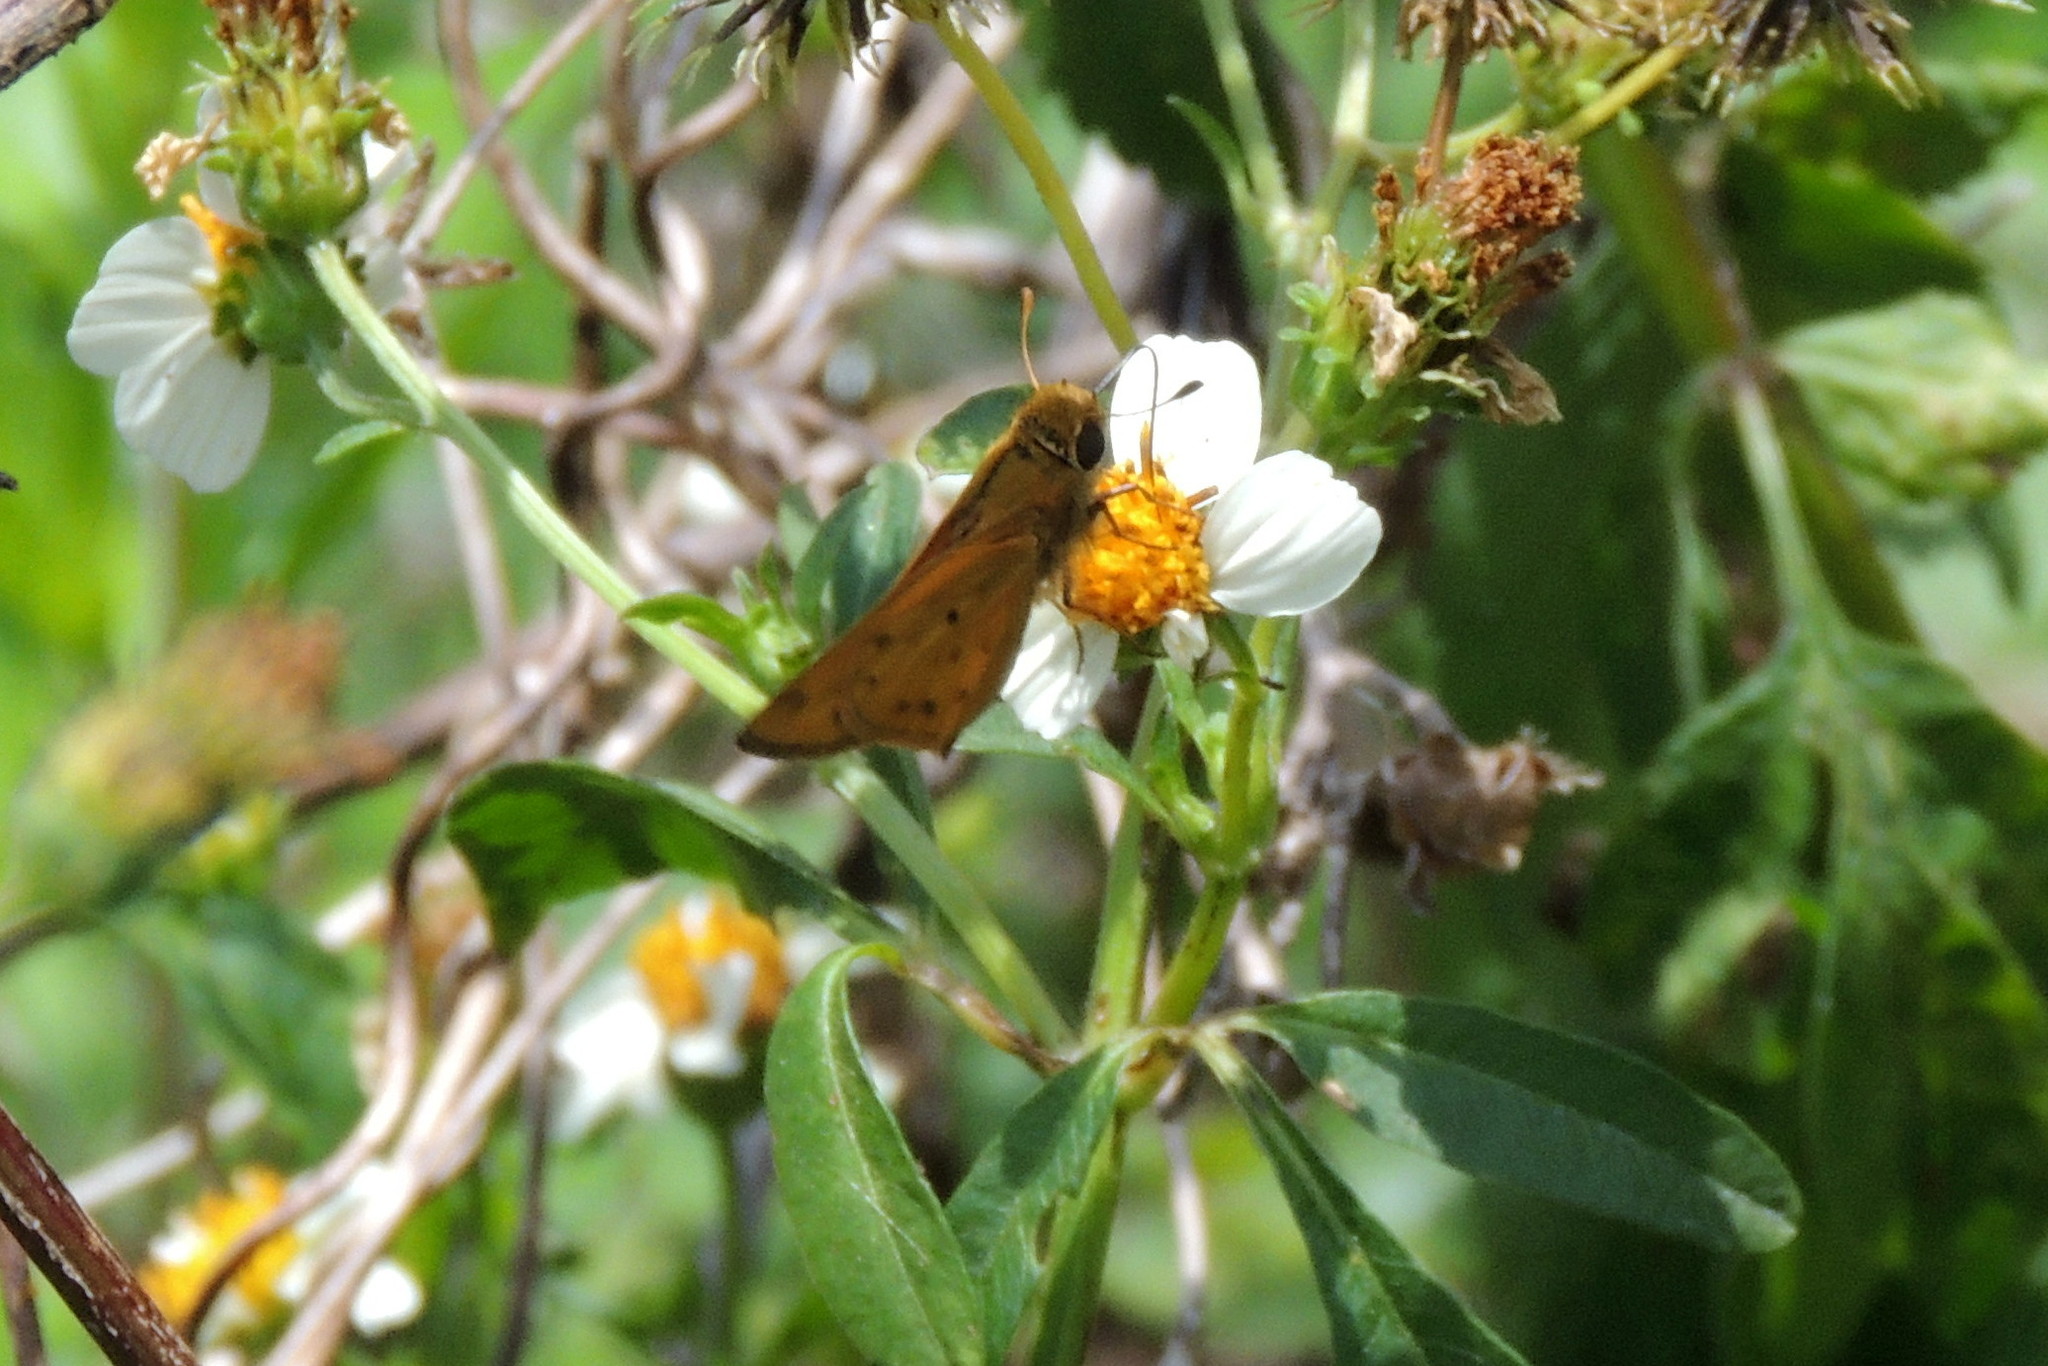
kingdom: Animalia
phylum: Arthropoda
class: Insecta
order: Lepidoptera
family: Hesperiidae
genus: Hylephila
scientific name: Hylephila phyleus
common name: Fiery skipper
